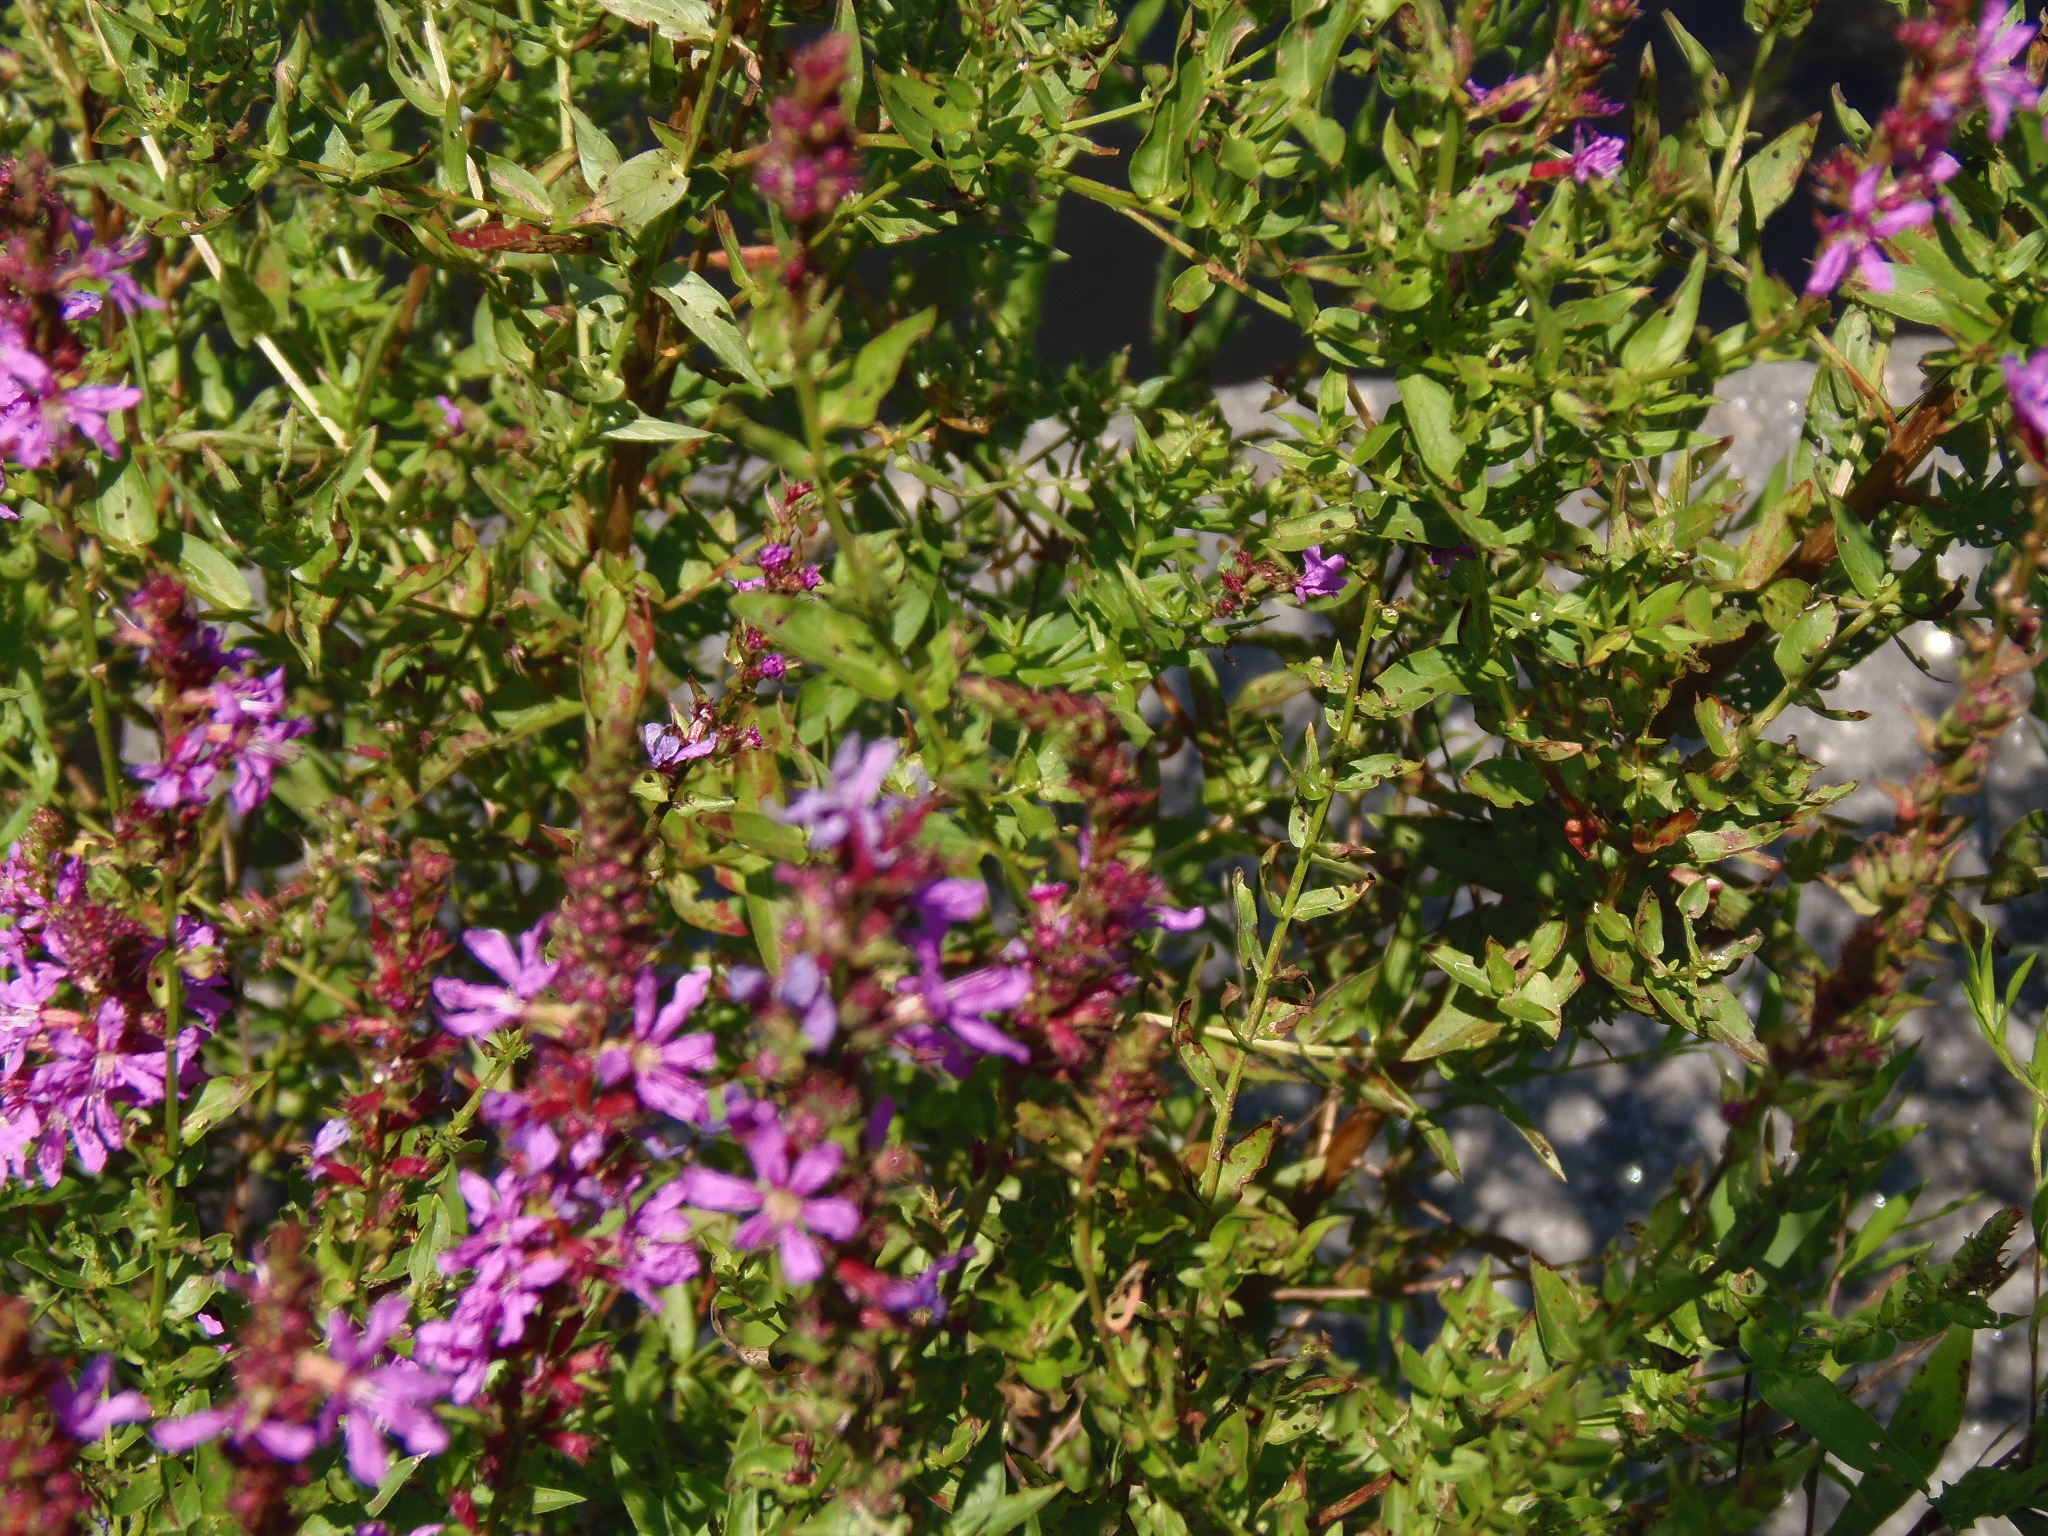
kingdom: Plantae
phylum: Tracheophyta
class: Magnoliopsida
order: Myrtales
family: Lythraceae
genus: Lythrum
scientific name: Lythrum salicaria
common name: Purple loosestrife
